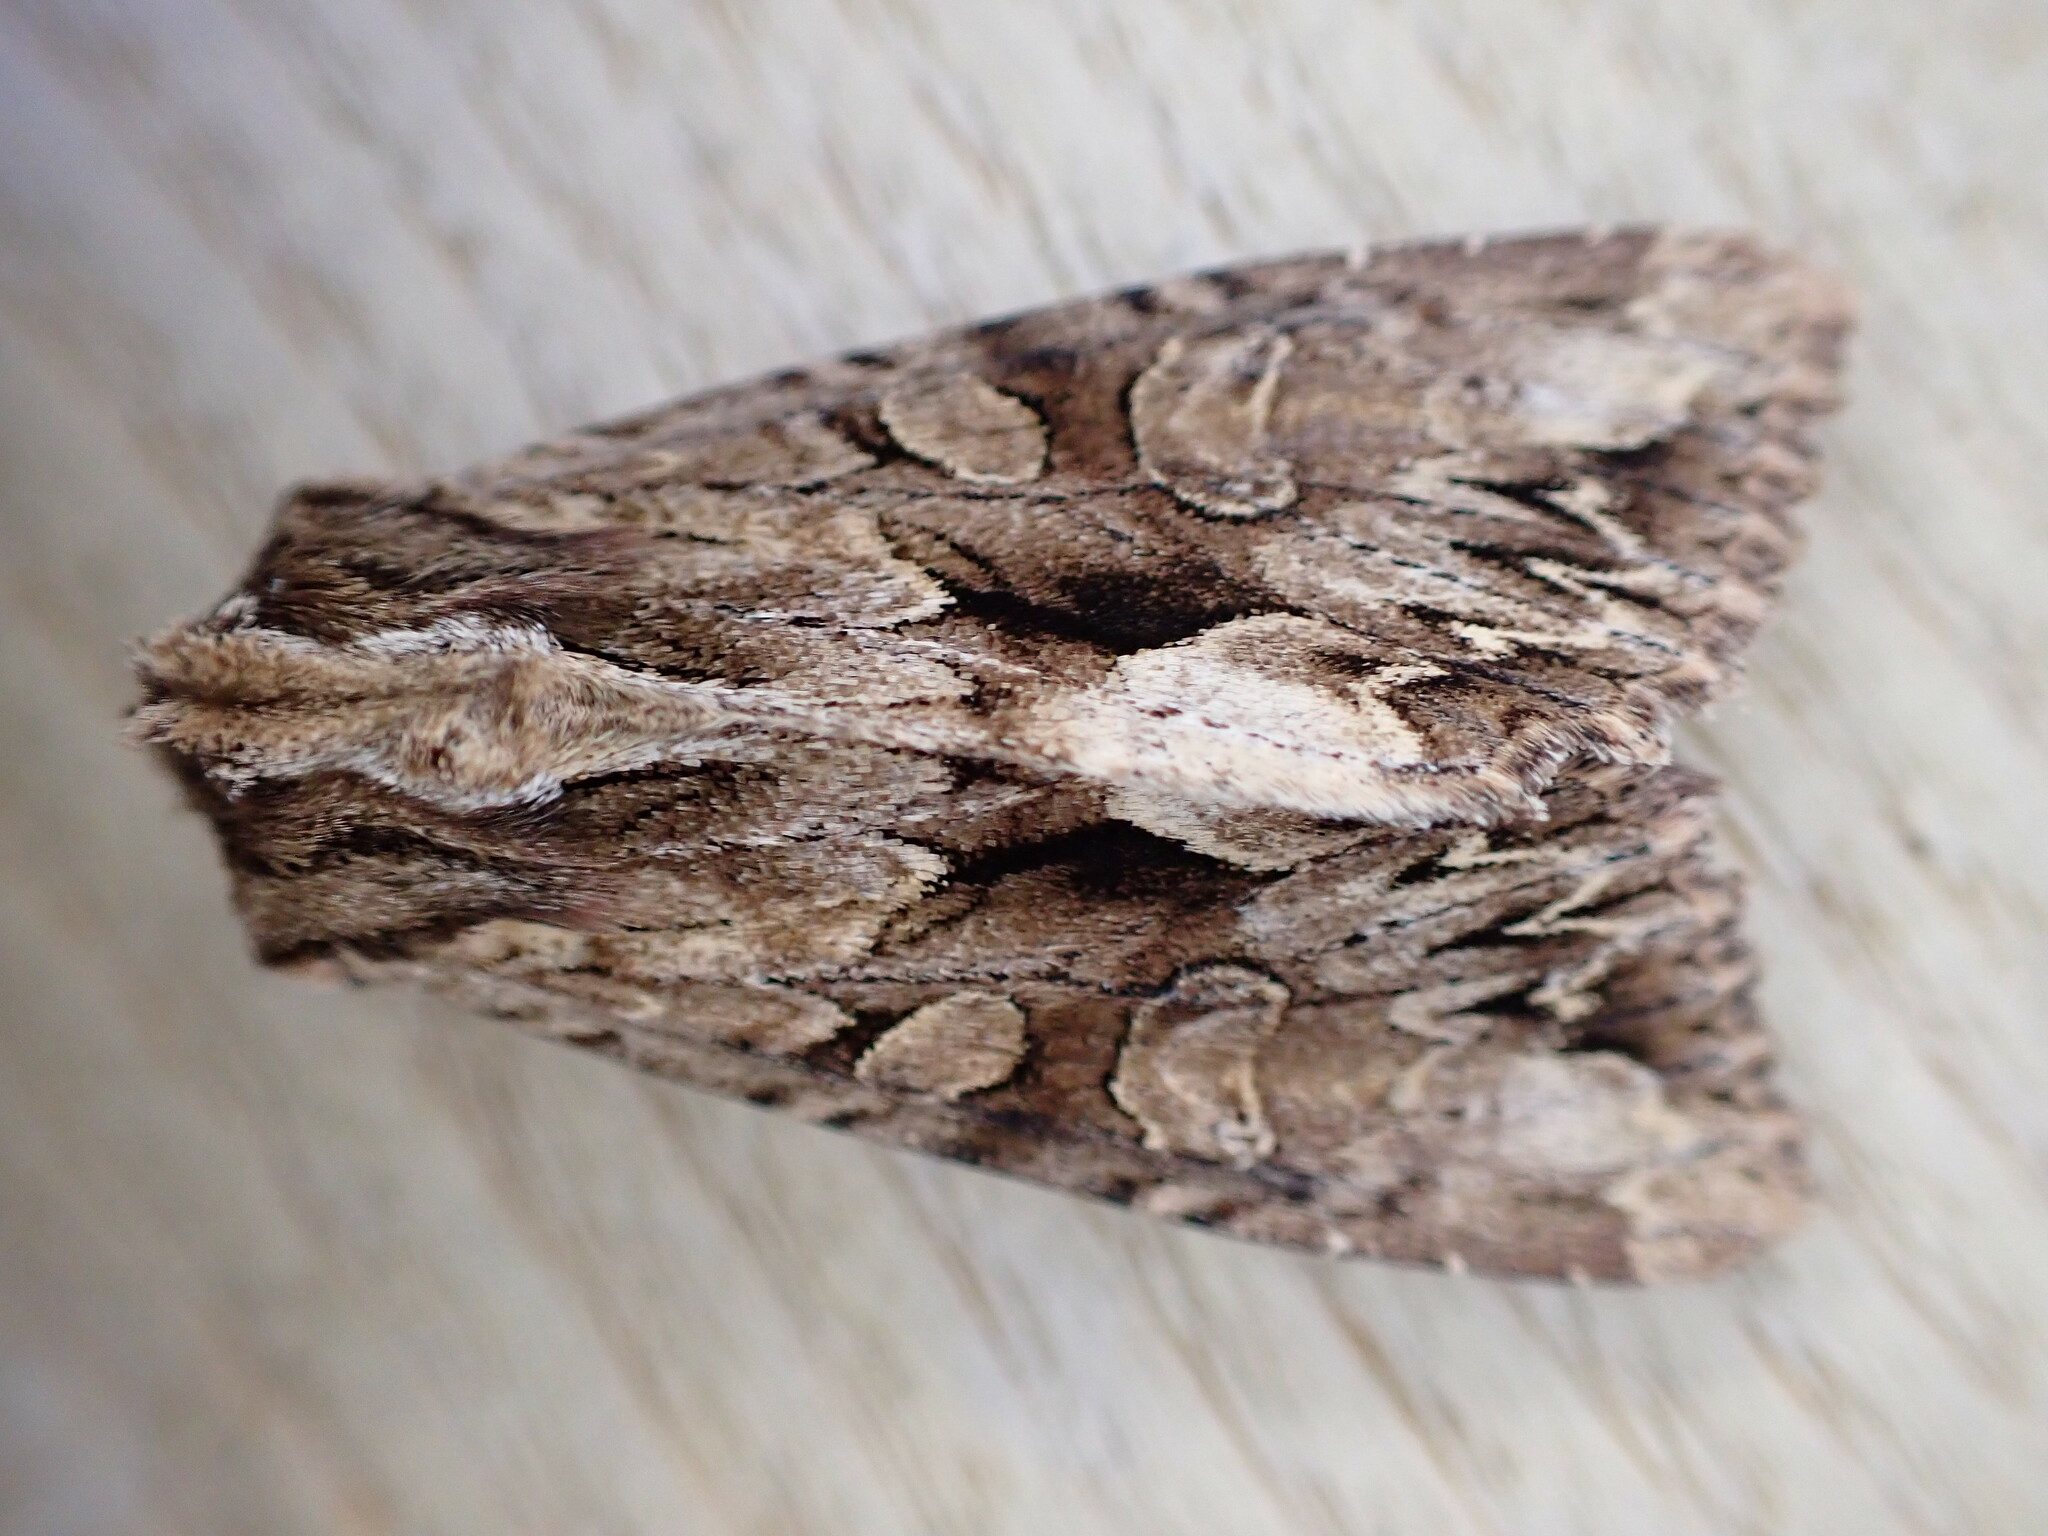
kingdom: Animalia
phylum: Arthropoda
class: Insecta
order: Lepidoptera
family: Noctuidae
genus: Apamea
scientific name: Apamea monoglypha
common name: Dark arches
